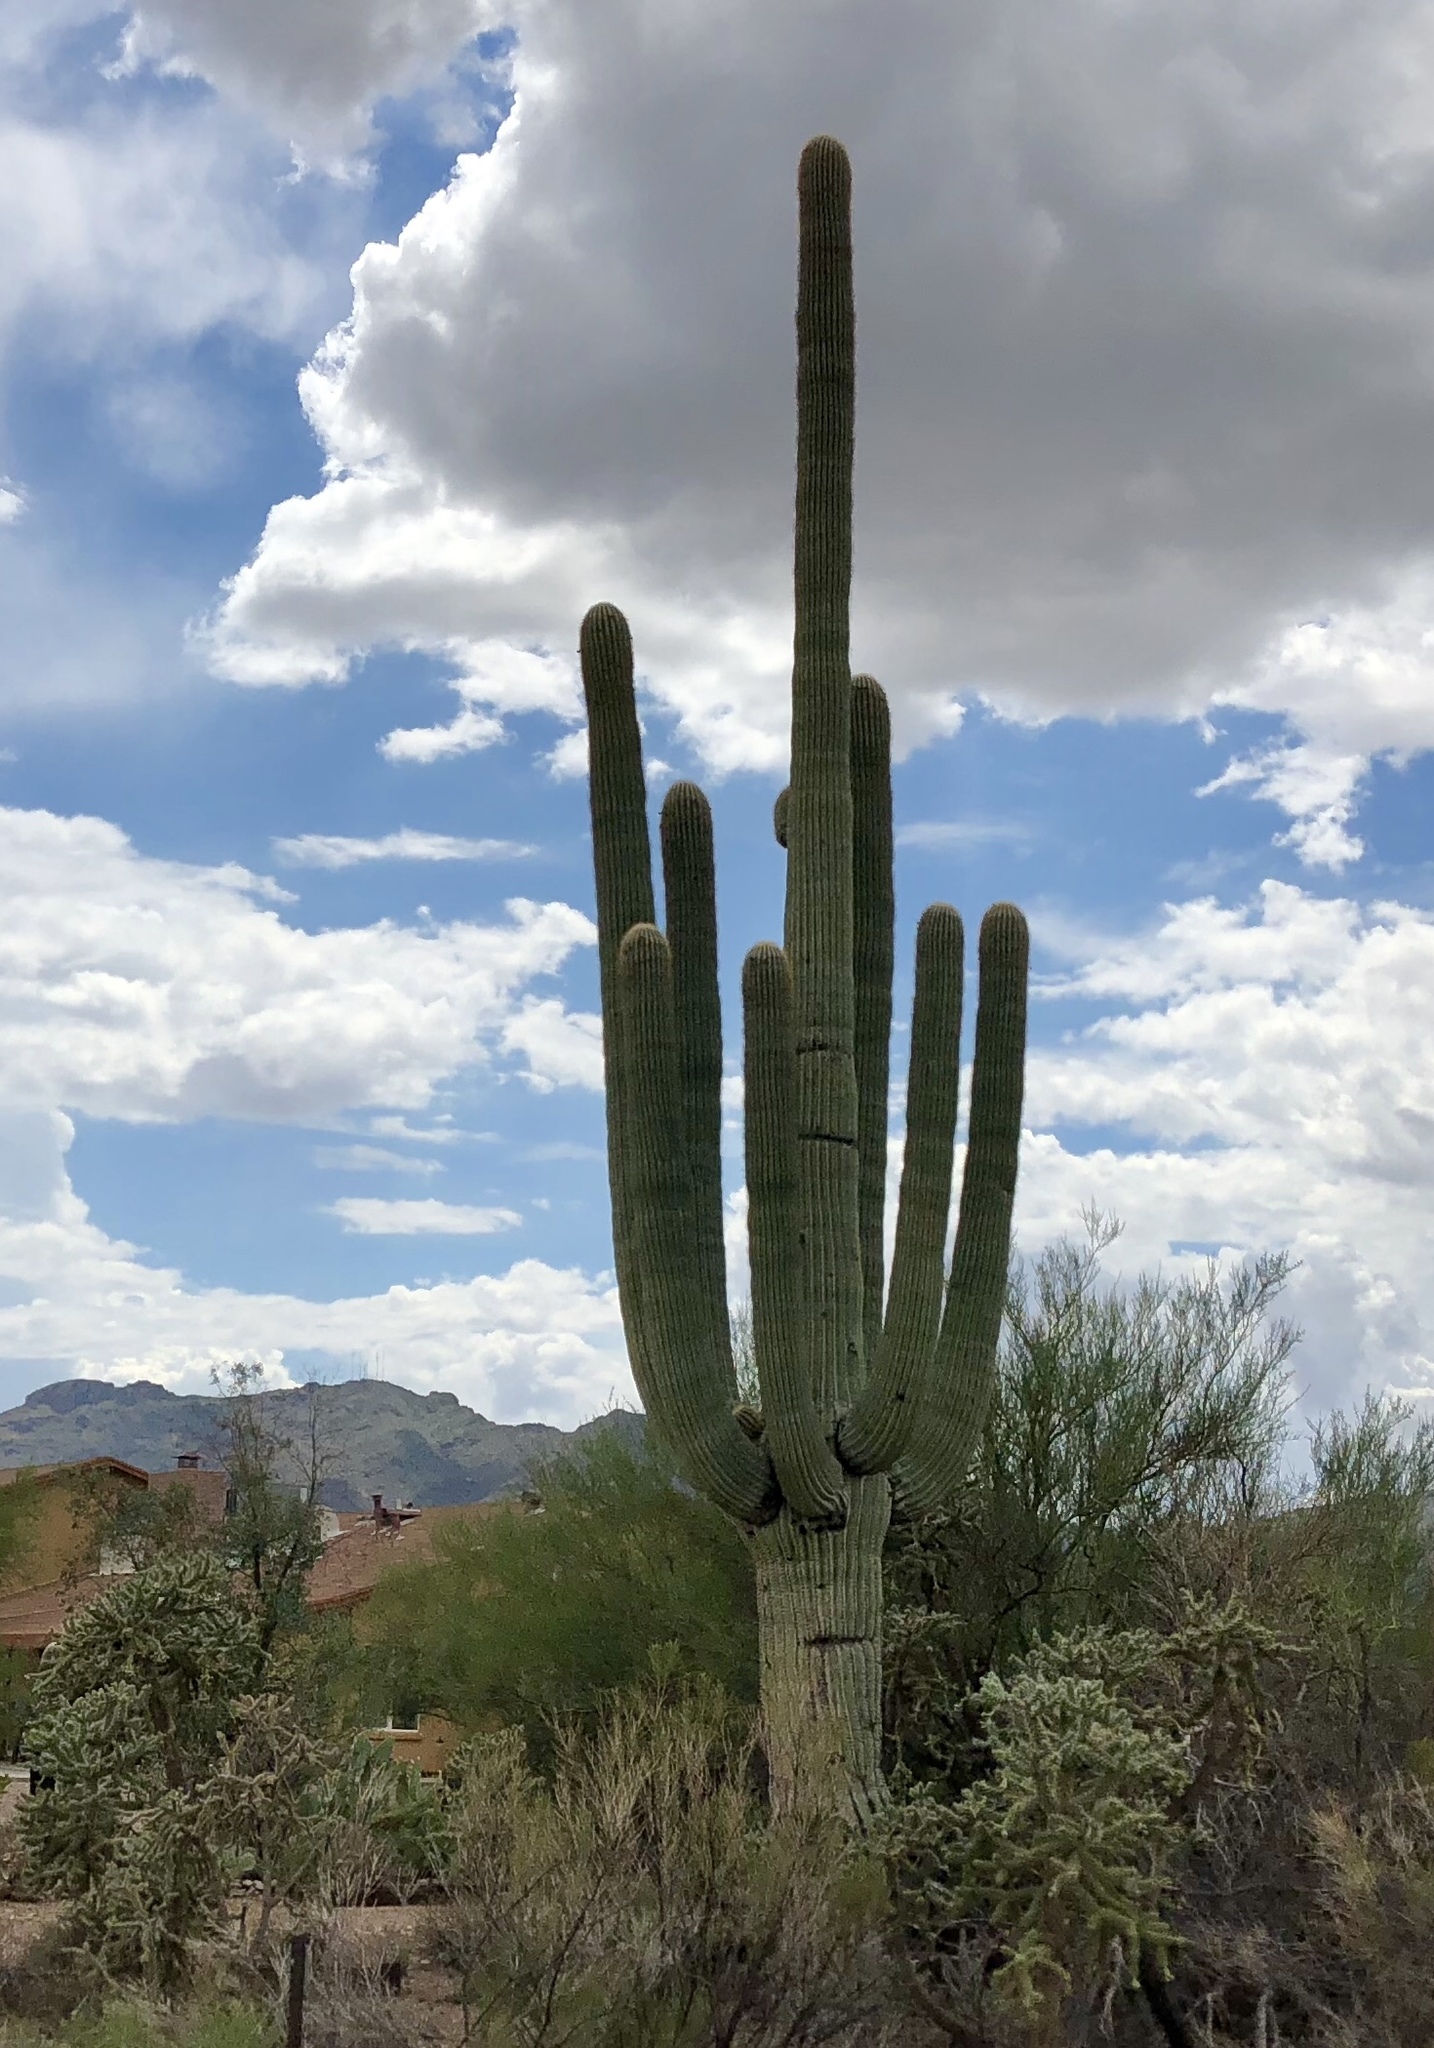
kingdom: Plantae
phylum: Tracheophyta
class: Magnoliopsida
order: Caryophyllales
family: Cactaceae
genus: Carnegiea
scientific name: Carnegiea gigantea
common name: Saguaro
